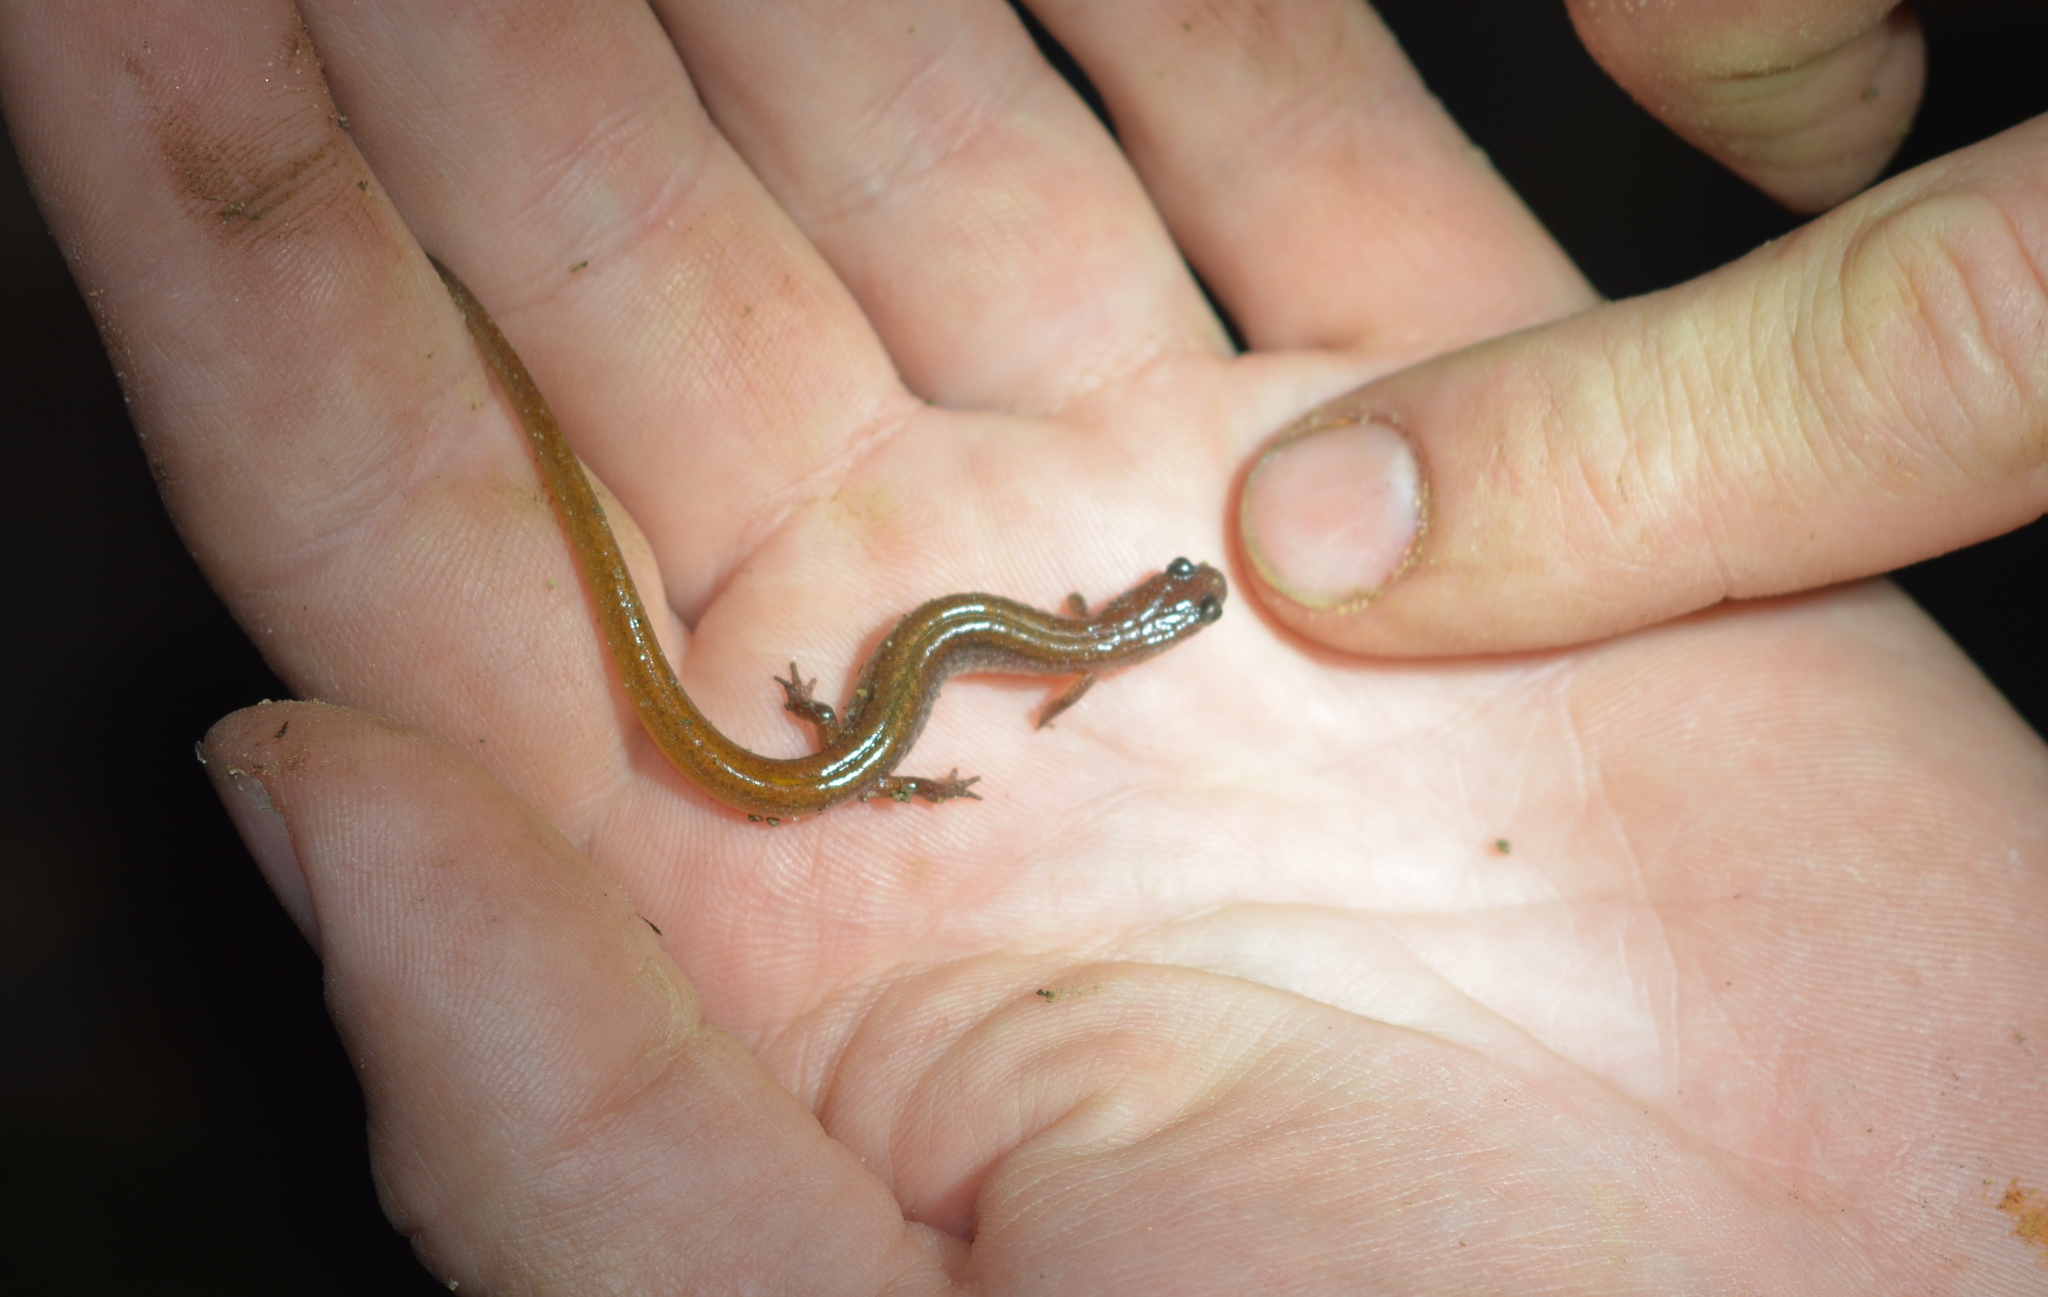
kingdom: Animalia
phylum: Chordata
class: Amphibia
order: Caudata
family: Plethodontidae
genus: Eurycea
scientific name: Eurycea paludicola
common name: Western dwarf salamander
